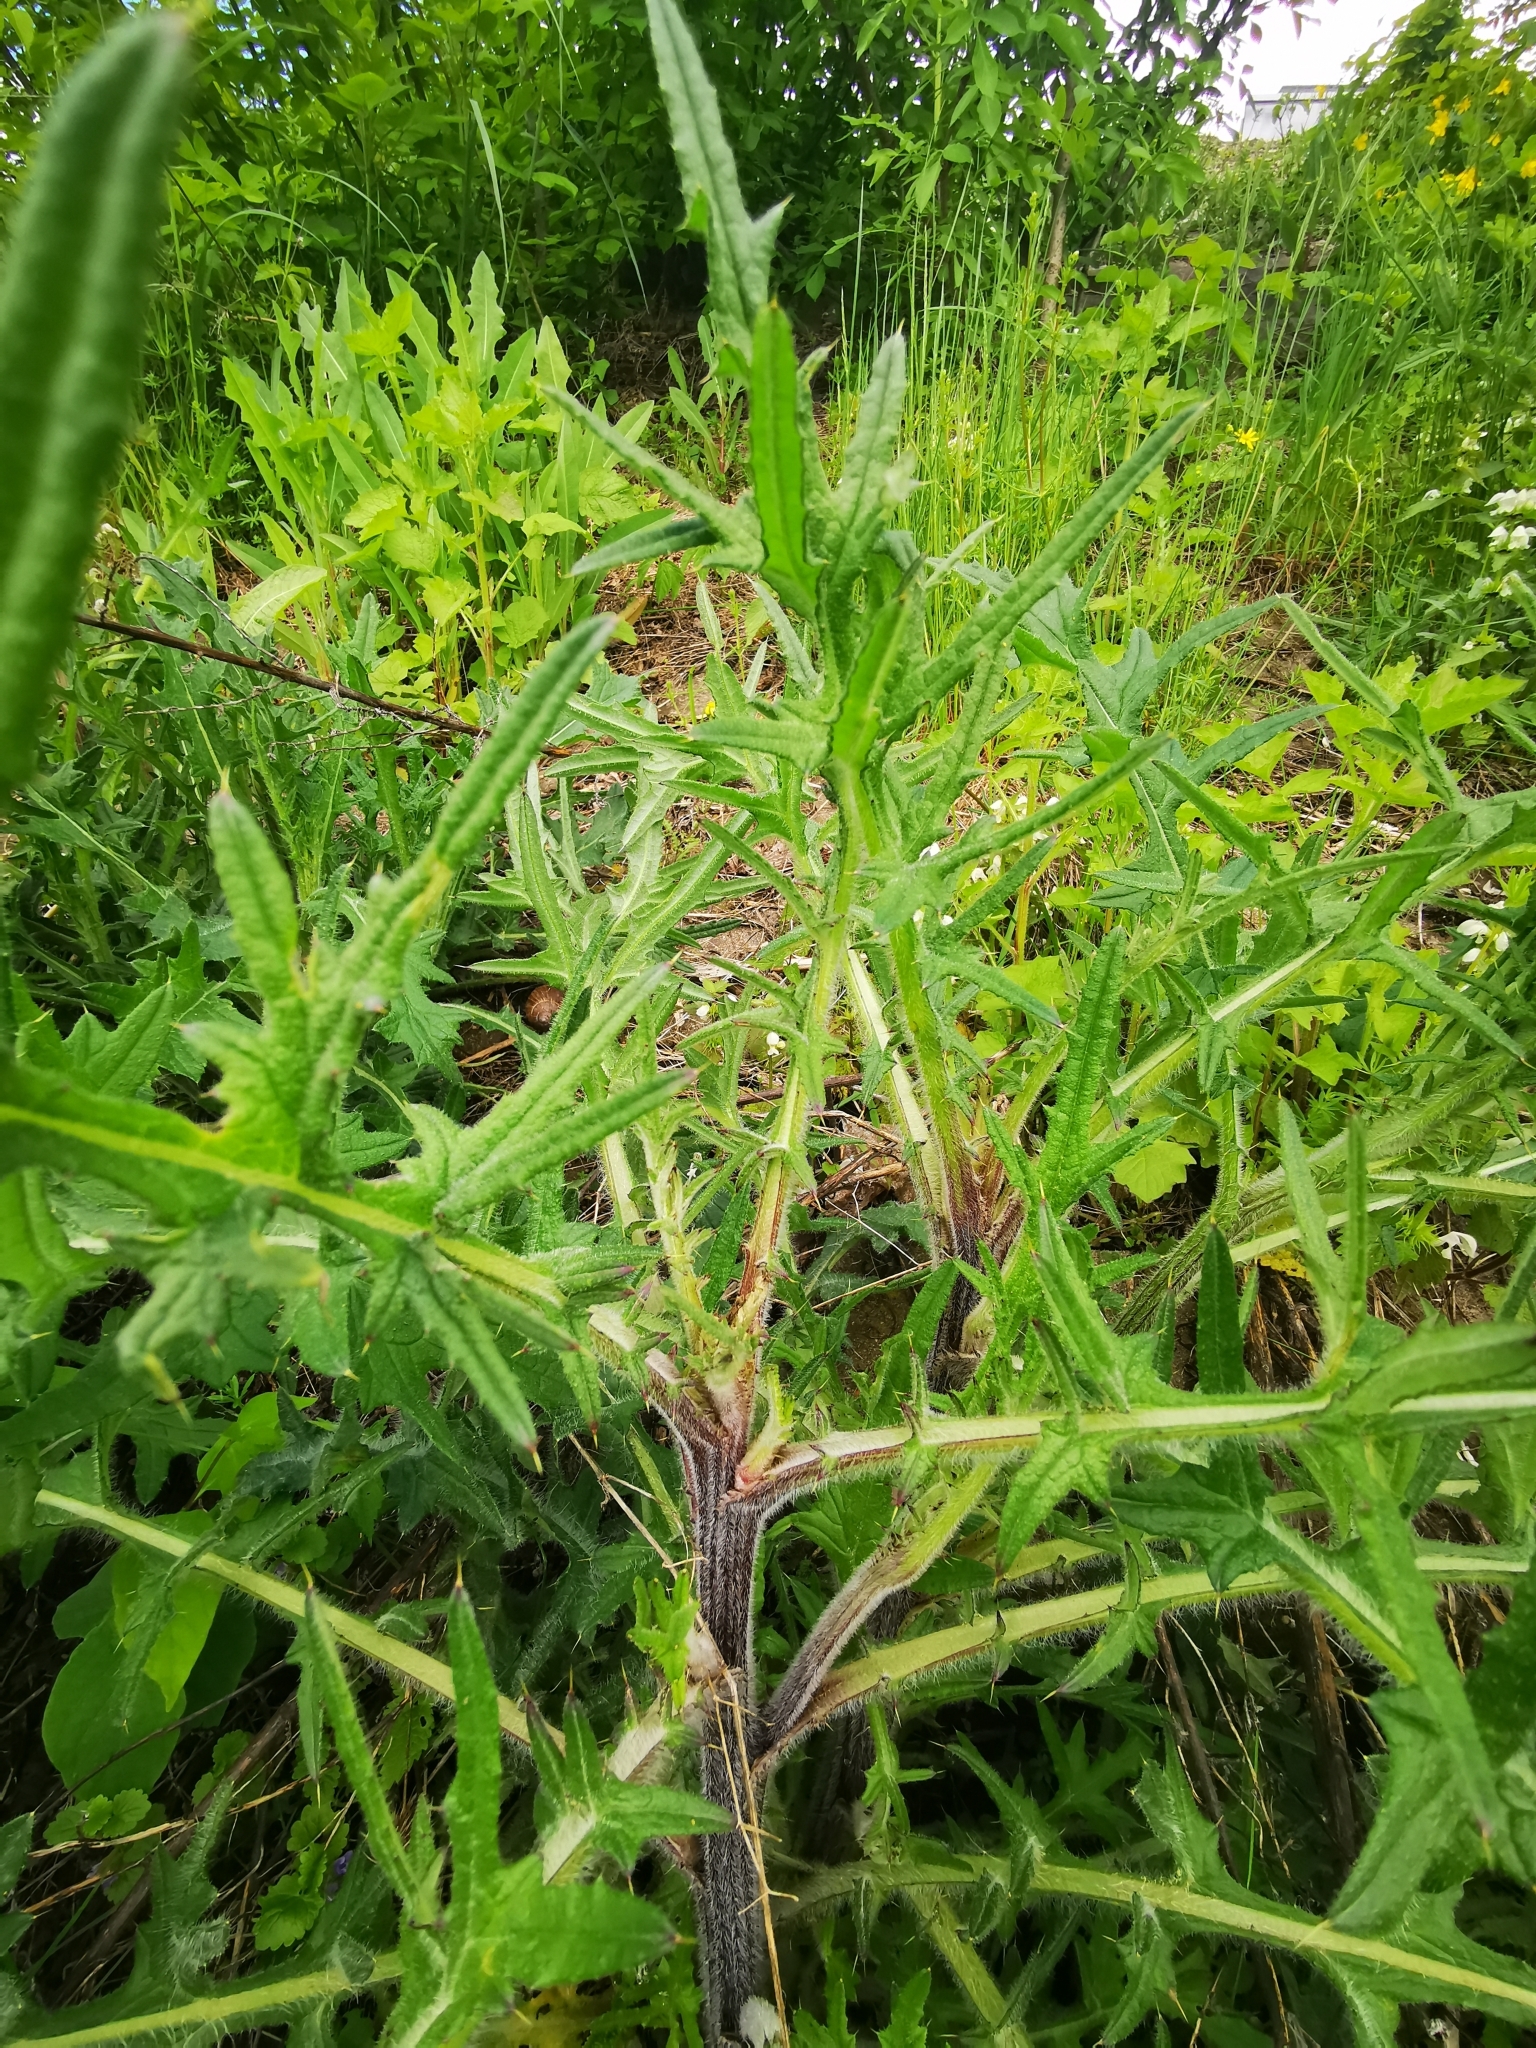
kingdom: Plantae
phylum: Tracheophyta
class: Magnoliopsida
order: Asterales
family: Asteraceae
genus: Cirsium
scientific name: Cirsium vulgare
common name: Bull thistle
